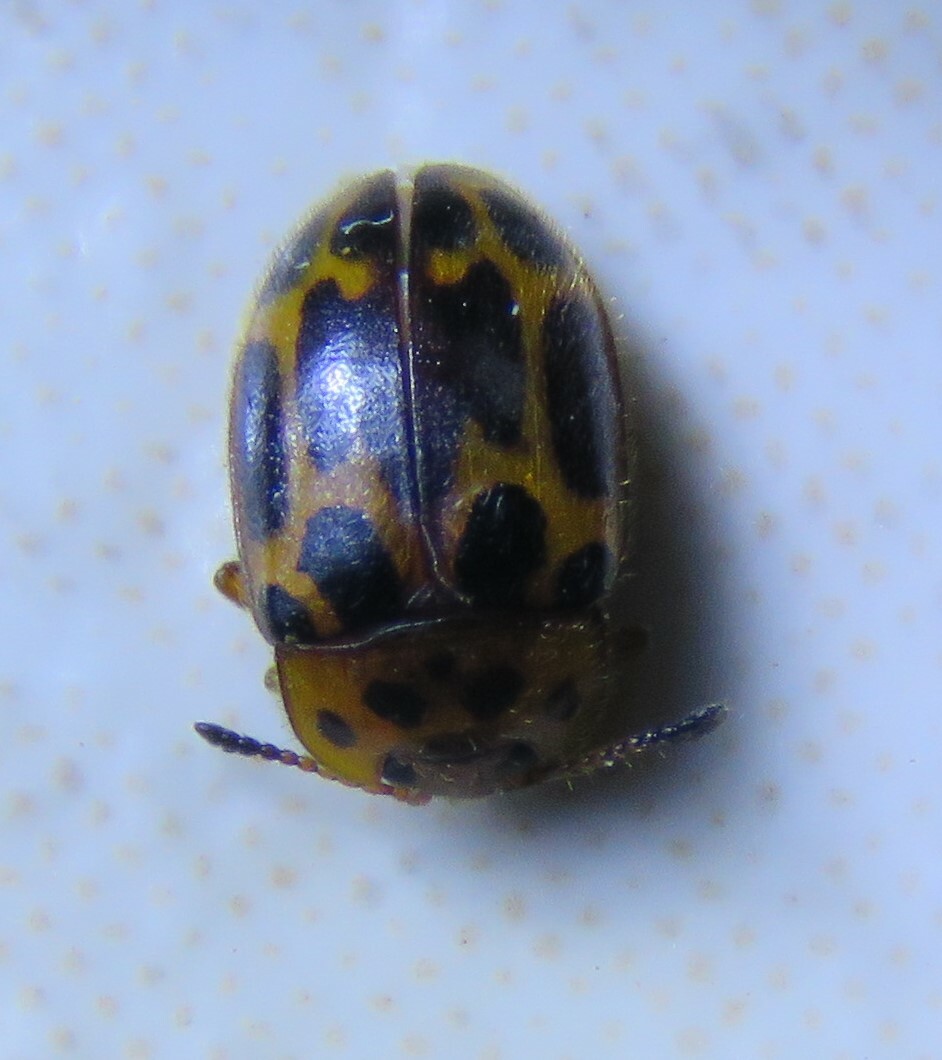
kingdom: Animalia
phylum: Arthropoda
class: Insecta
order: Coleoptera
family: Endomychidae
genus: Epopterus
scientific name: Epopterus partitus
